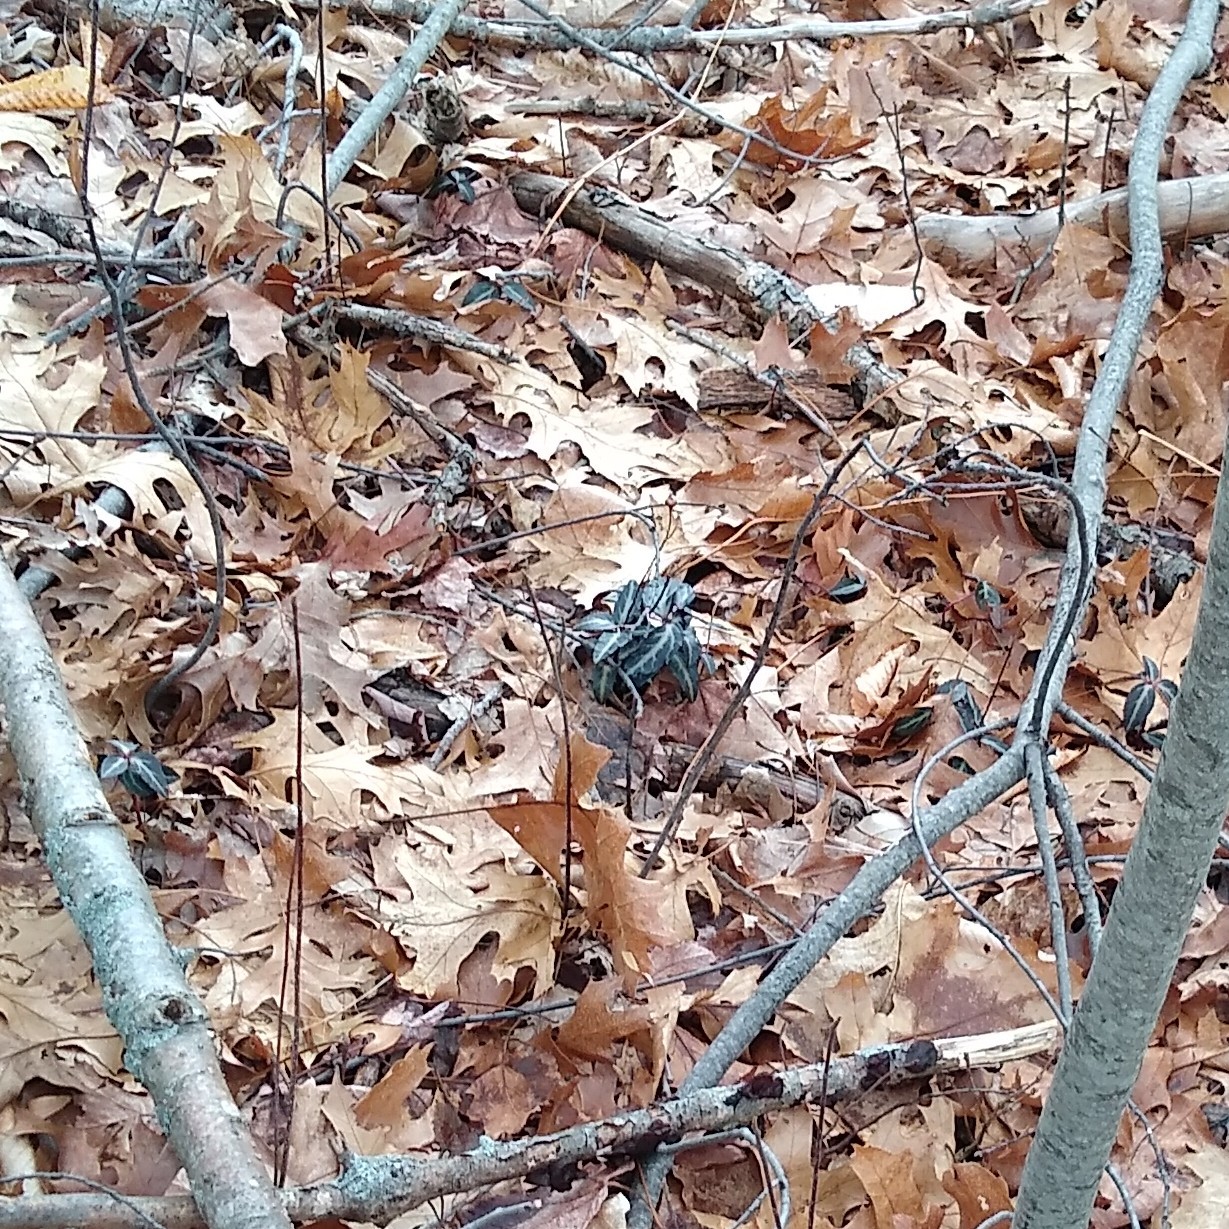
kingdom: Plantae
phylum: Tracheophyta
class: Magnoliopsida
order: Ericales
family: Ericaceae
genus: Chimaphila
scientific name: Chimaphila maculata
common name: Spotted pipsissewa
